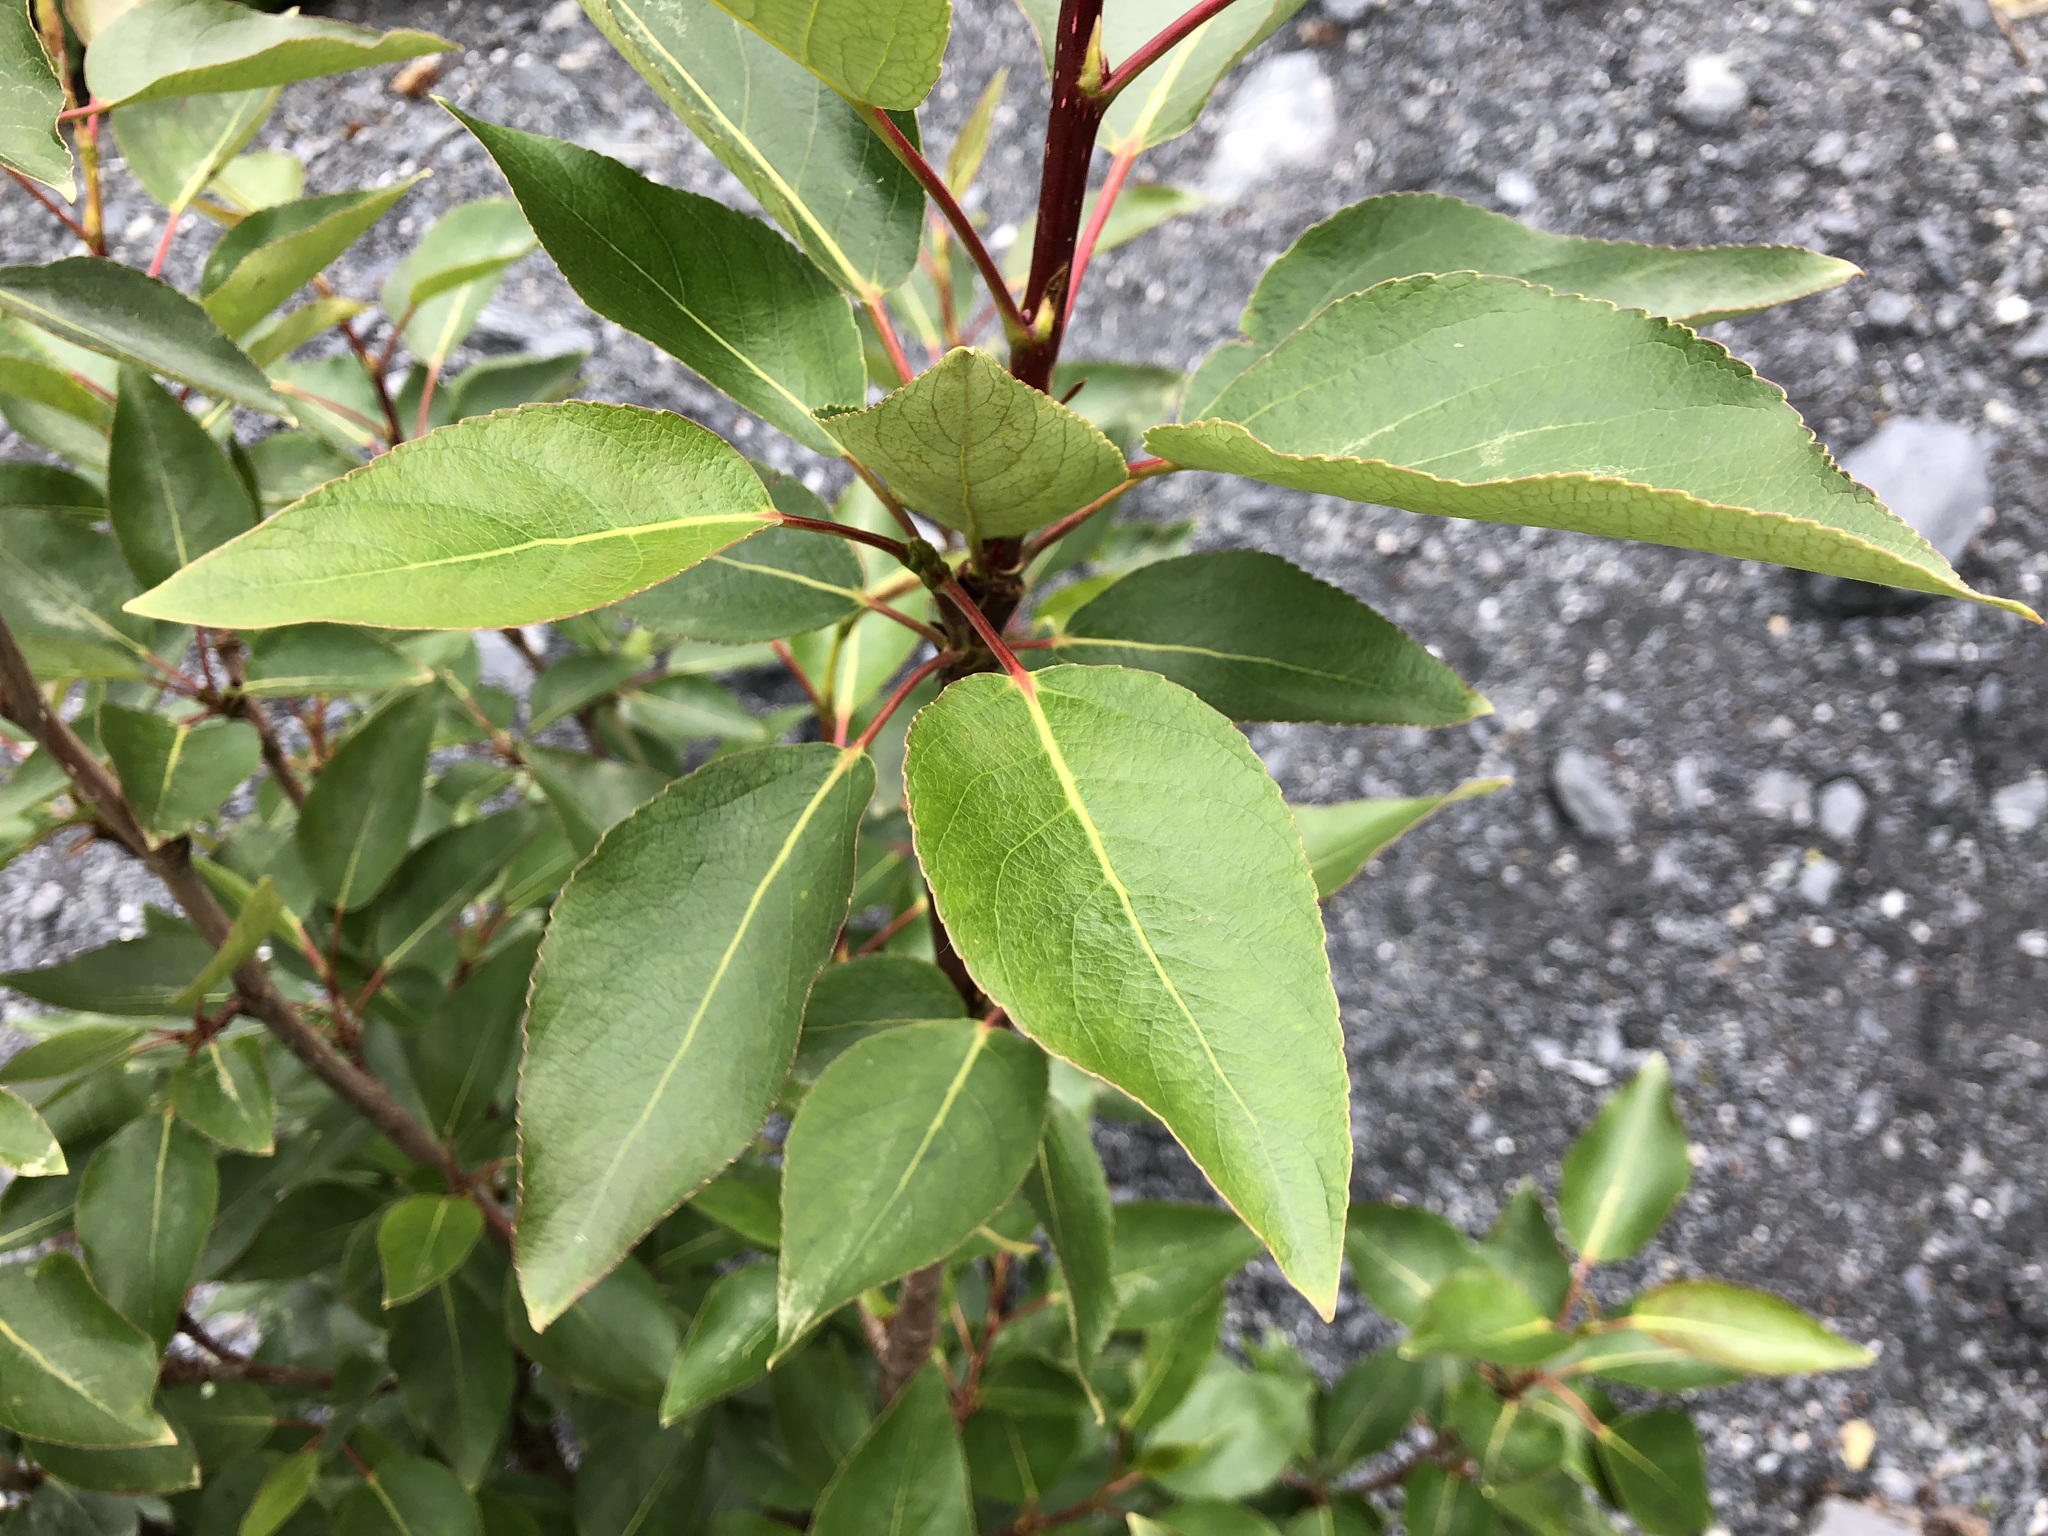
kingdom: Plantae
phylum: Tracheophyta
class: Magnoliopsida
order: Malpighiales
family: Salicaceae
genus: Populus
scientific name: Populus trichocarpa
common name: Black cottonwood
